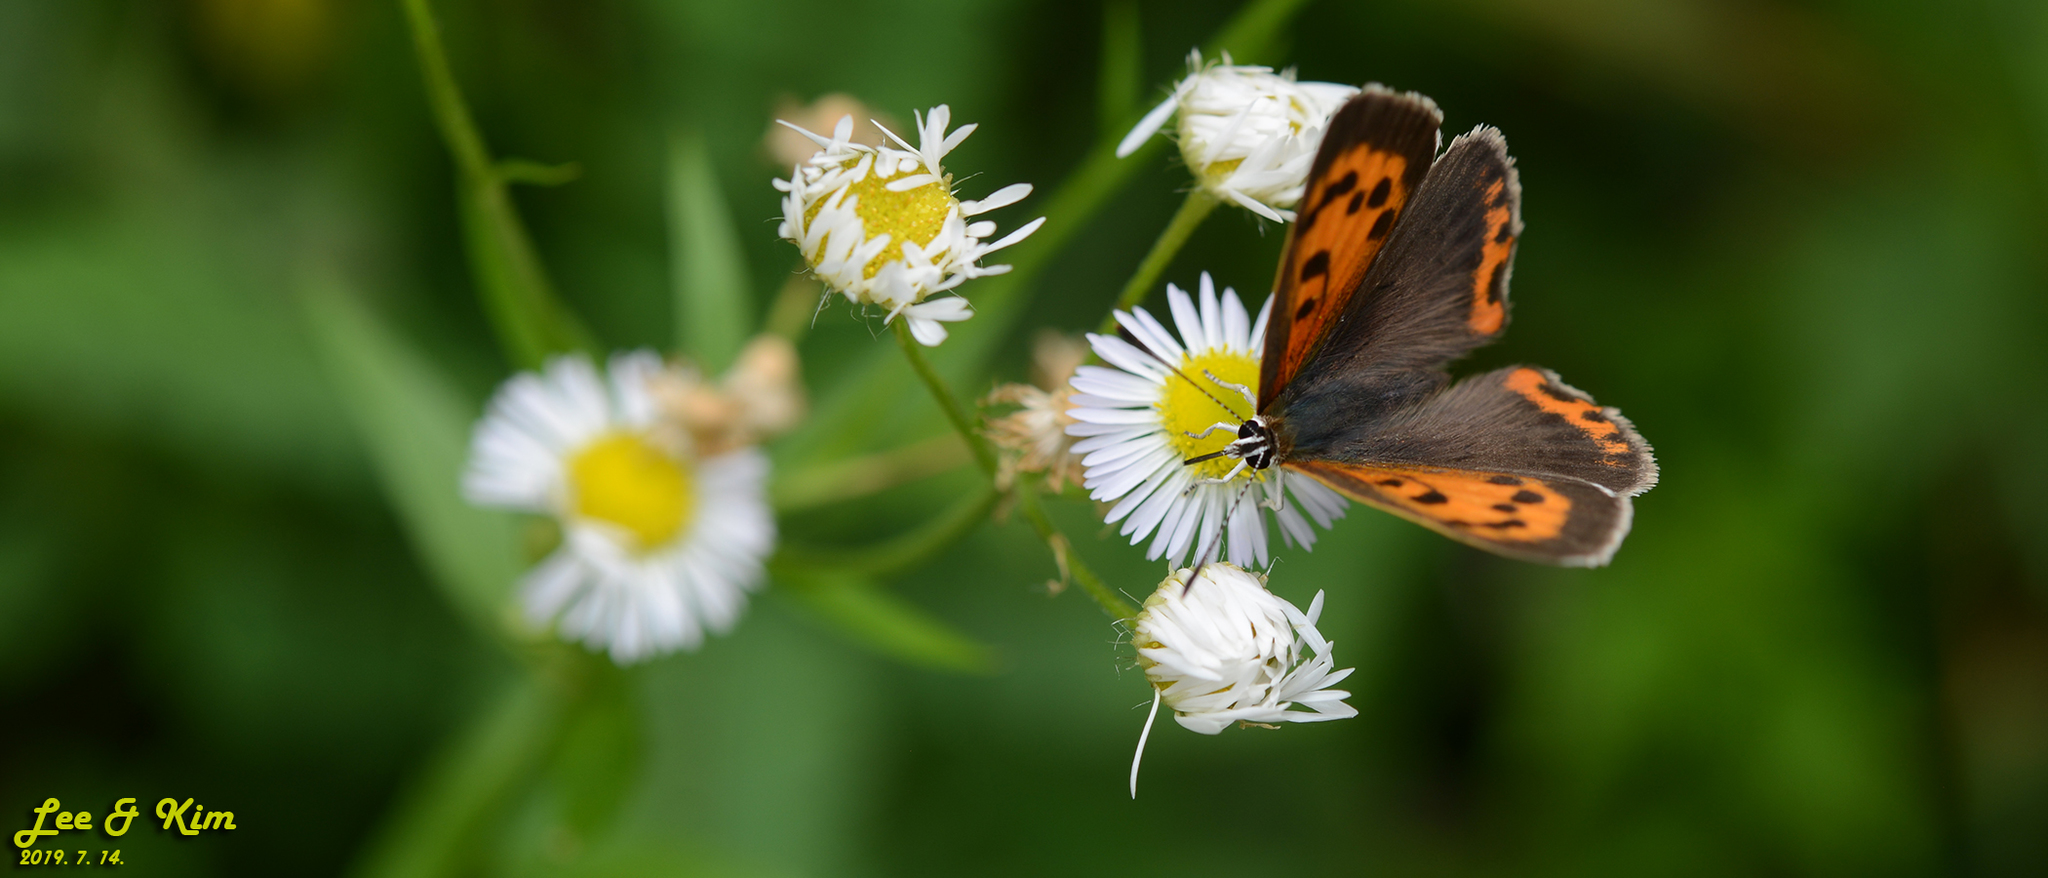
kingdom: Animalia
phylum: Arthropoda
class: Insecta
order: Lepidoptera
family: Lycaenidae
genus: Lycaena
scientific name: Lycaena phlaeas
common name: Small copper
